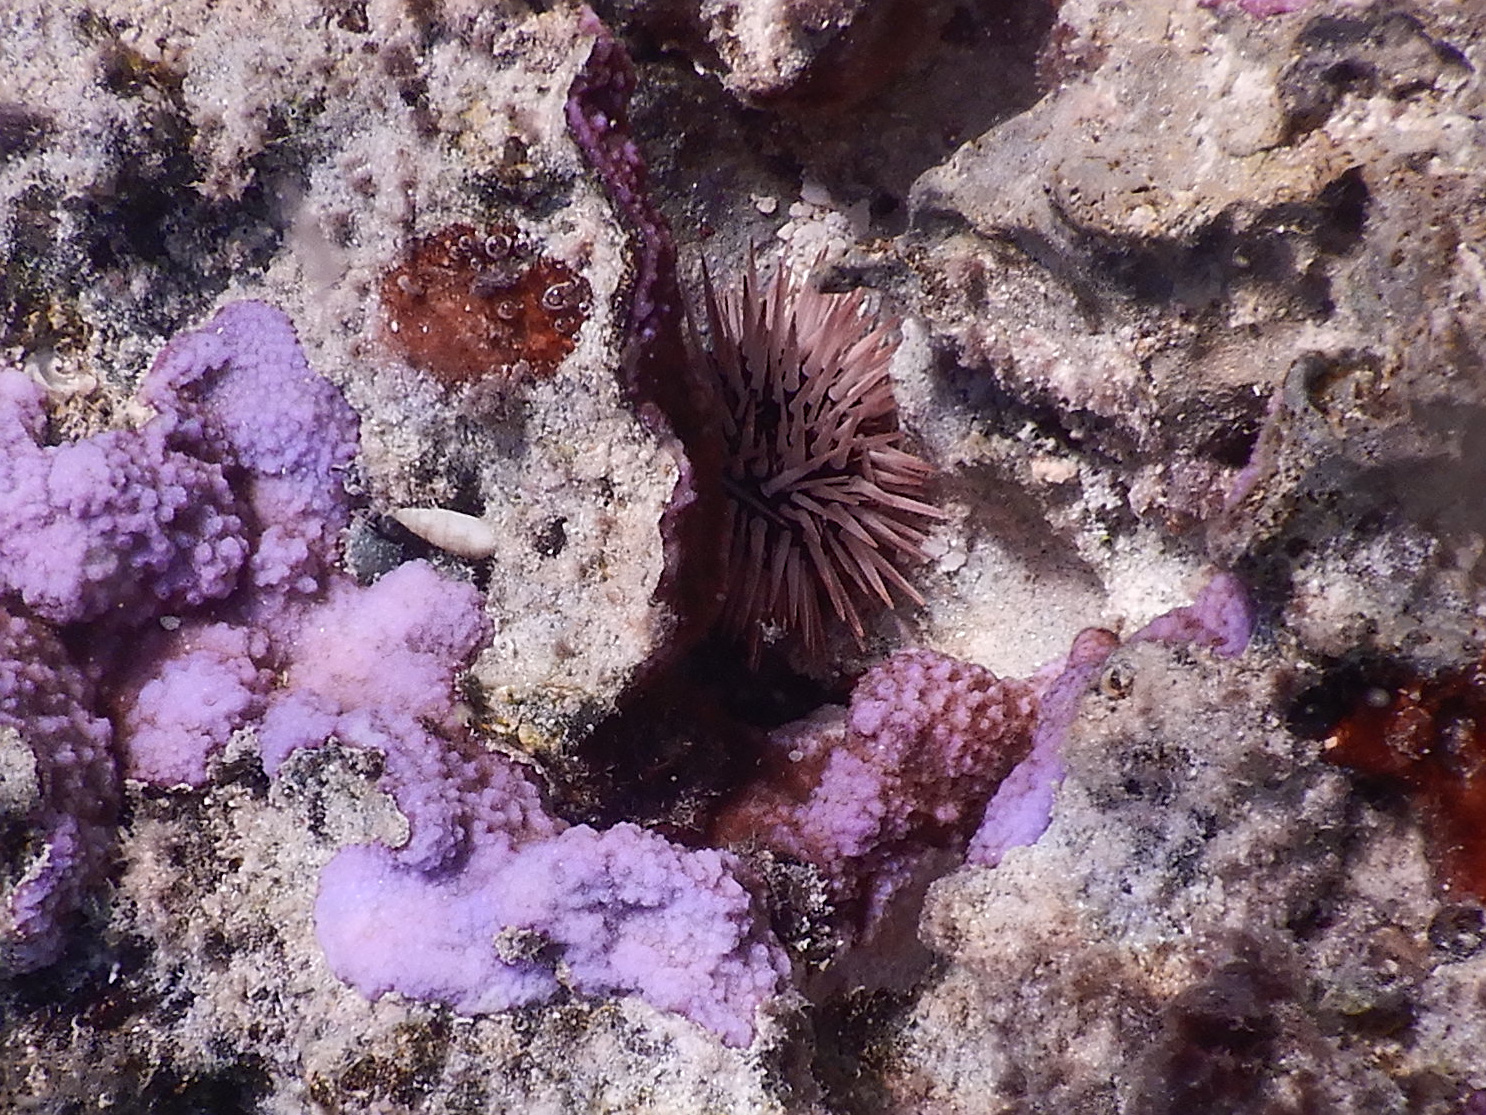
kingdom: Animalia
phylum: Echinodermata
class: Echinoidea
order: Camarodonta
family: Echinometridae
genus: Echinometra
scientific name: Echinometra mathaei
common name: Rock-boring urchin
